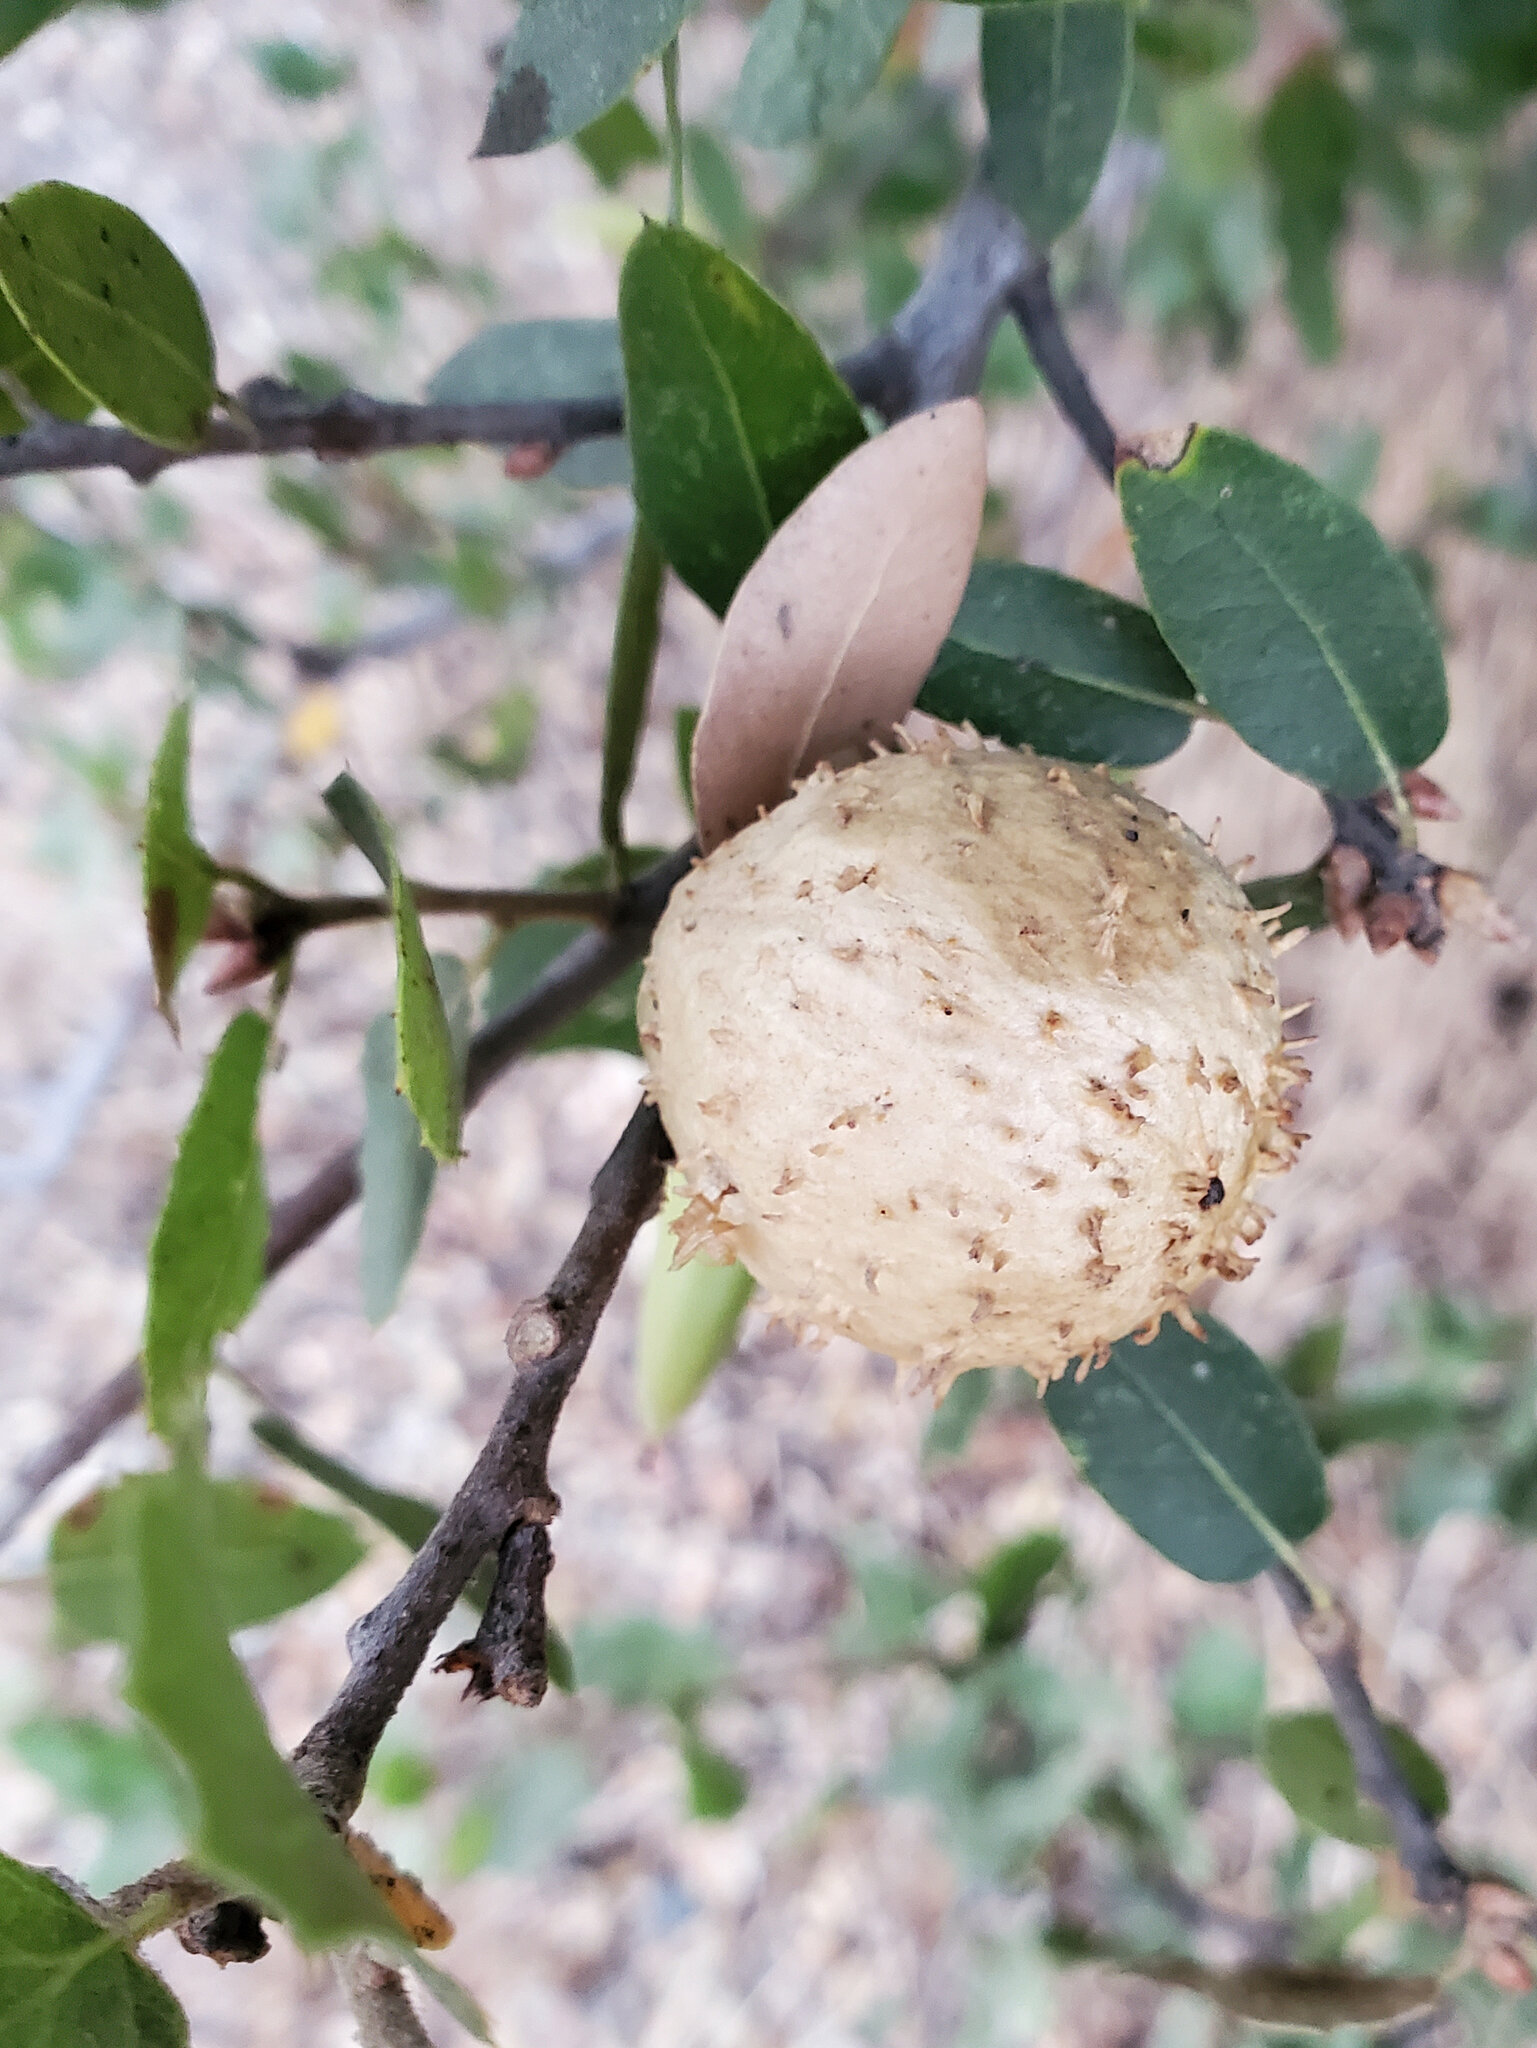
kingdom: Animalia
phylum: Arthropoda
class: Insecta
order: Hymenoptera
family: Cynipidae
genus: Amphibolips
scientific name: Amphibolips quercuspomiformis
